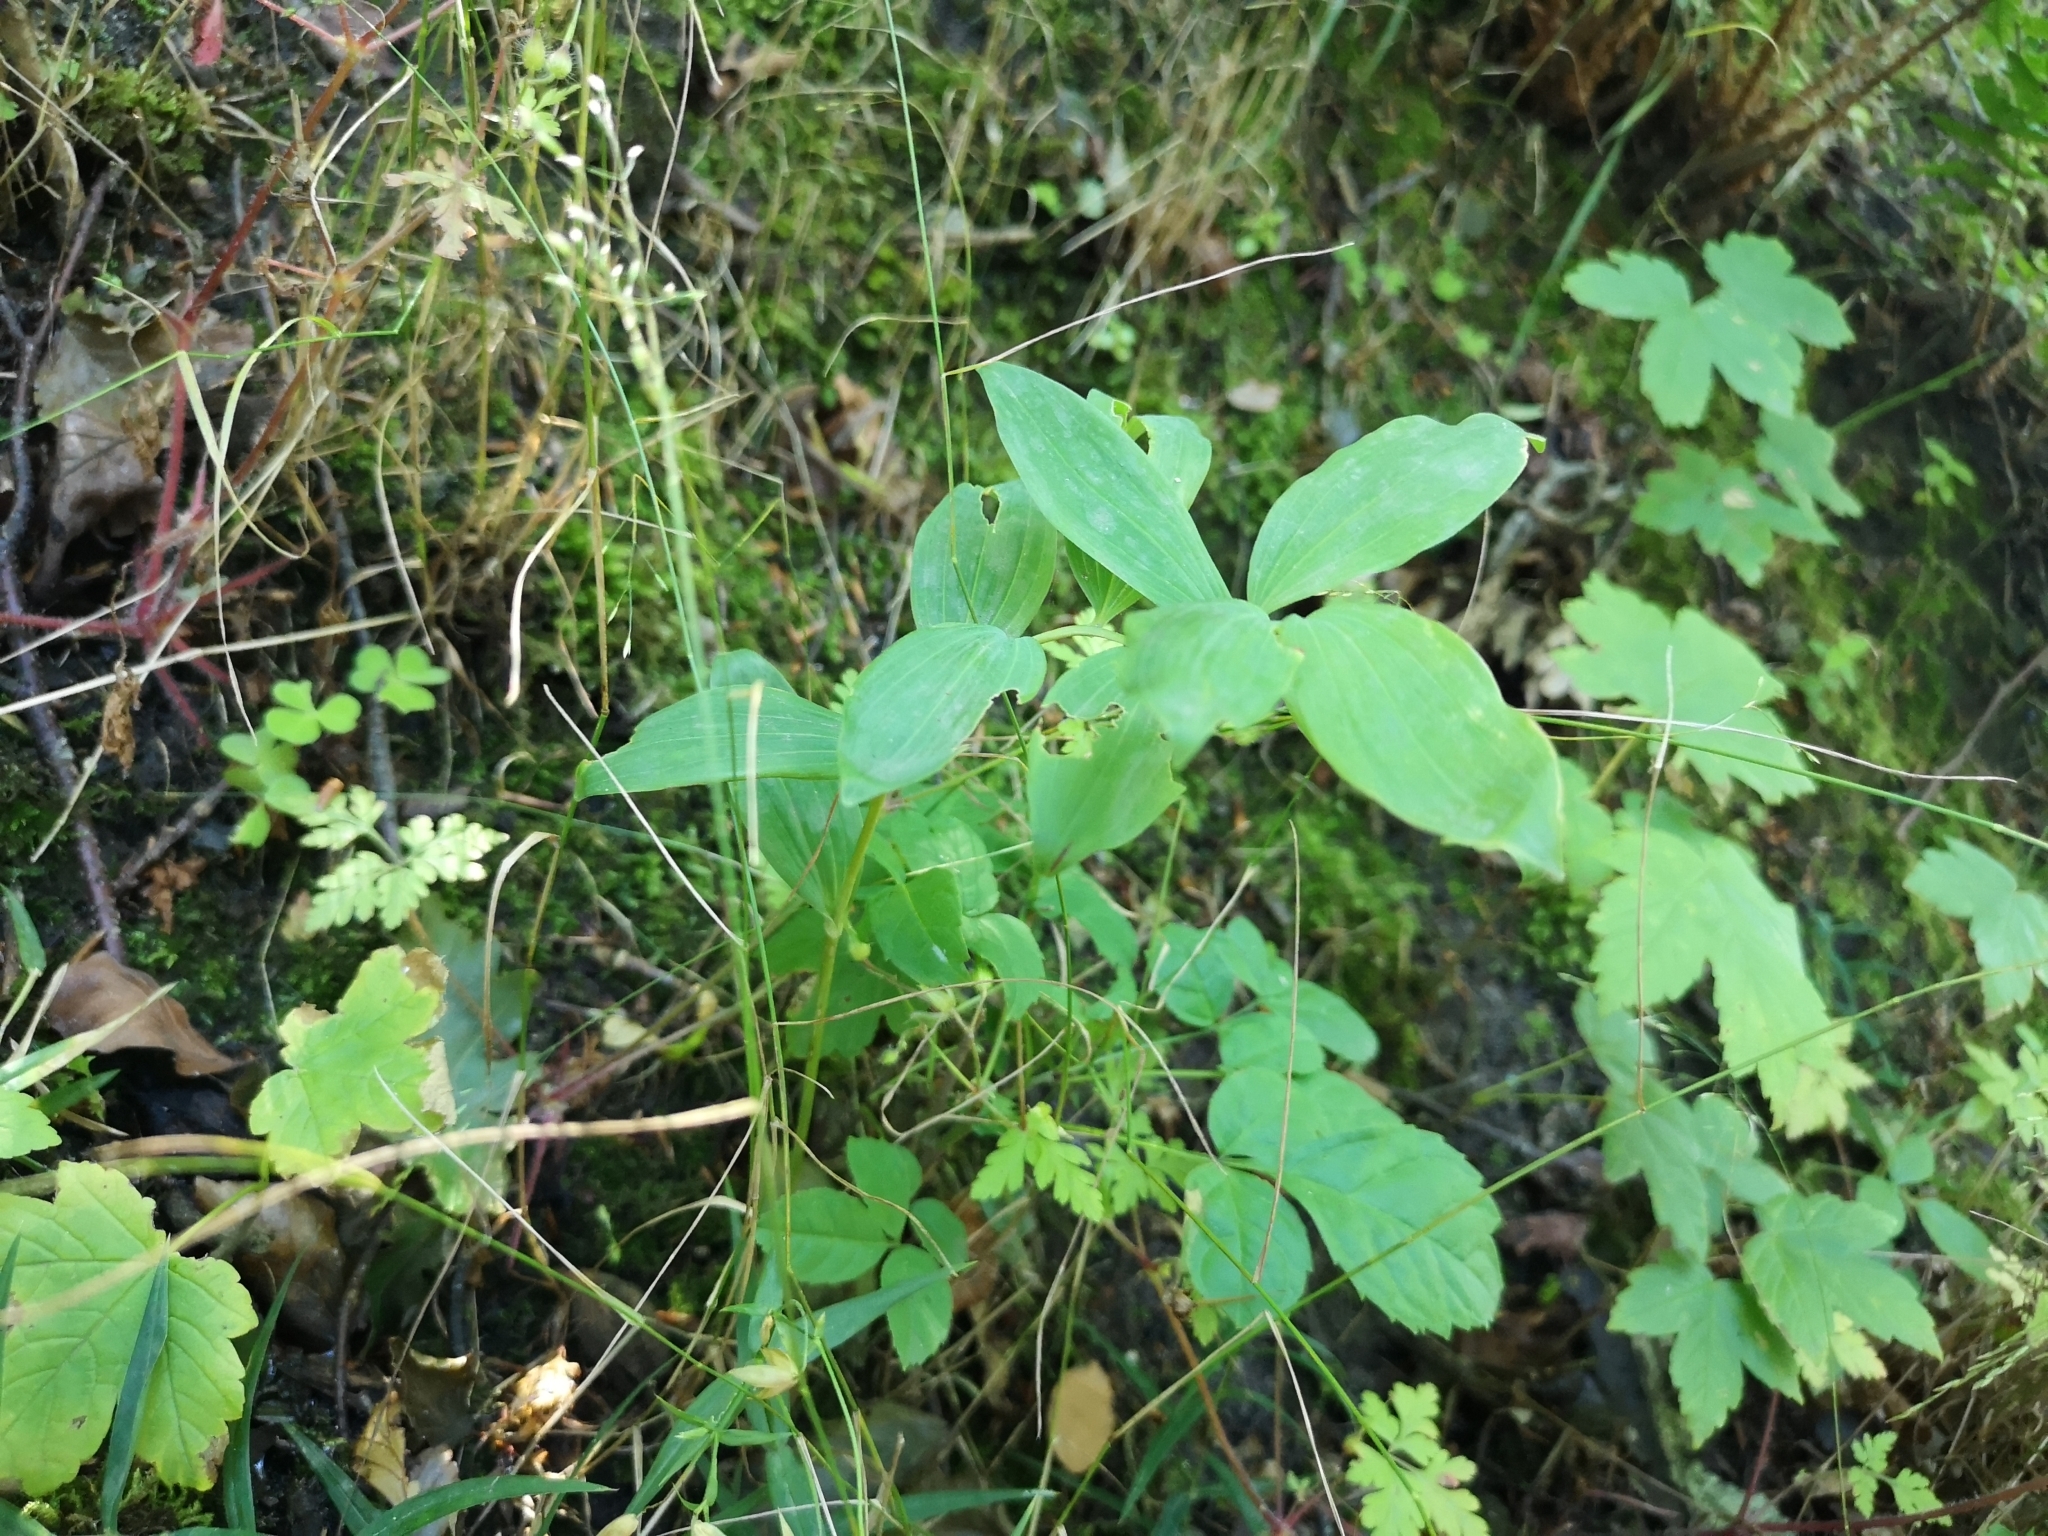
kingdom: Plantae
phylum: Tracheophyta
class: Liliopsida
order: Asparagales
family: Asparagaceae
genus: Polygonatum
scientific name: Polygonatum multiflorum
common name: Solomon's-seal
